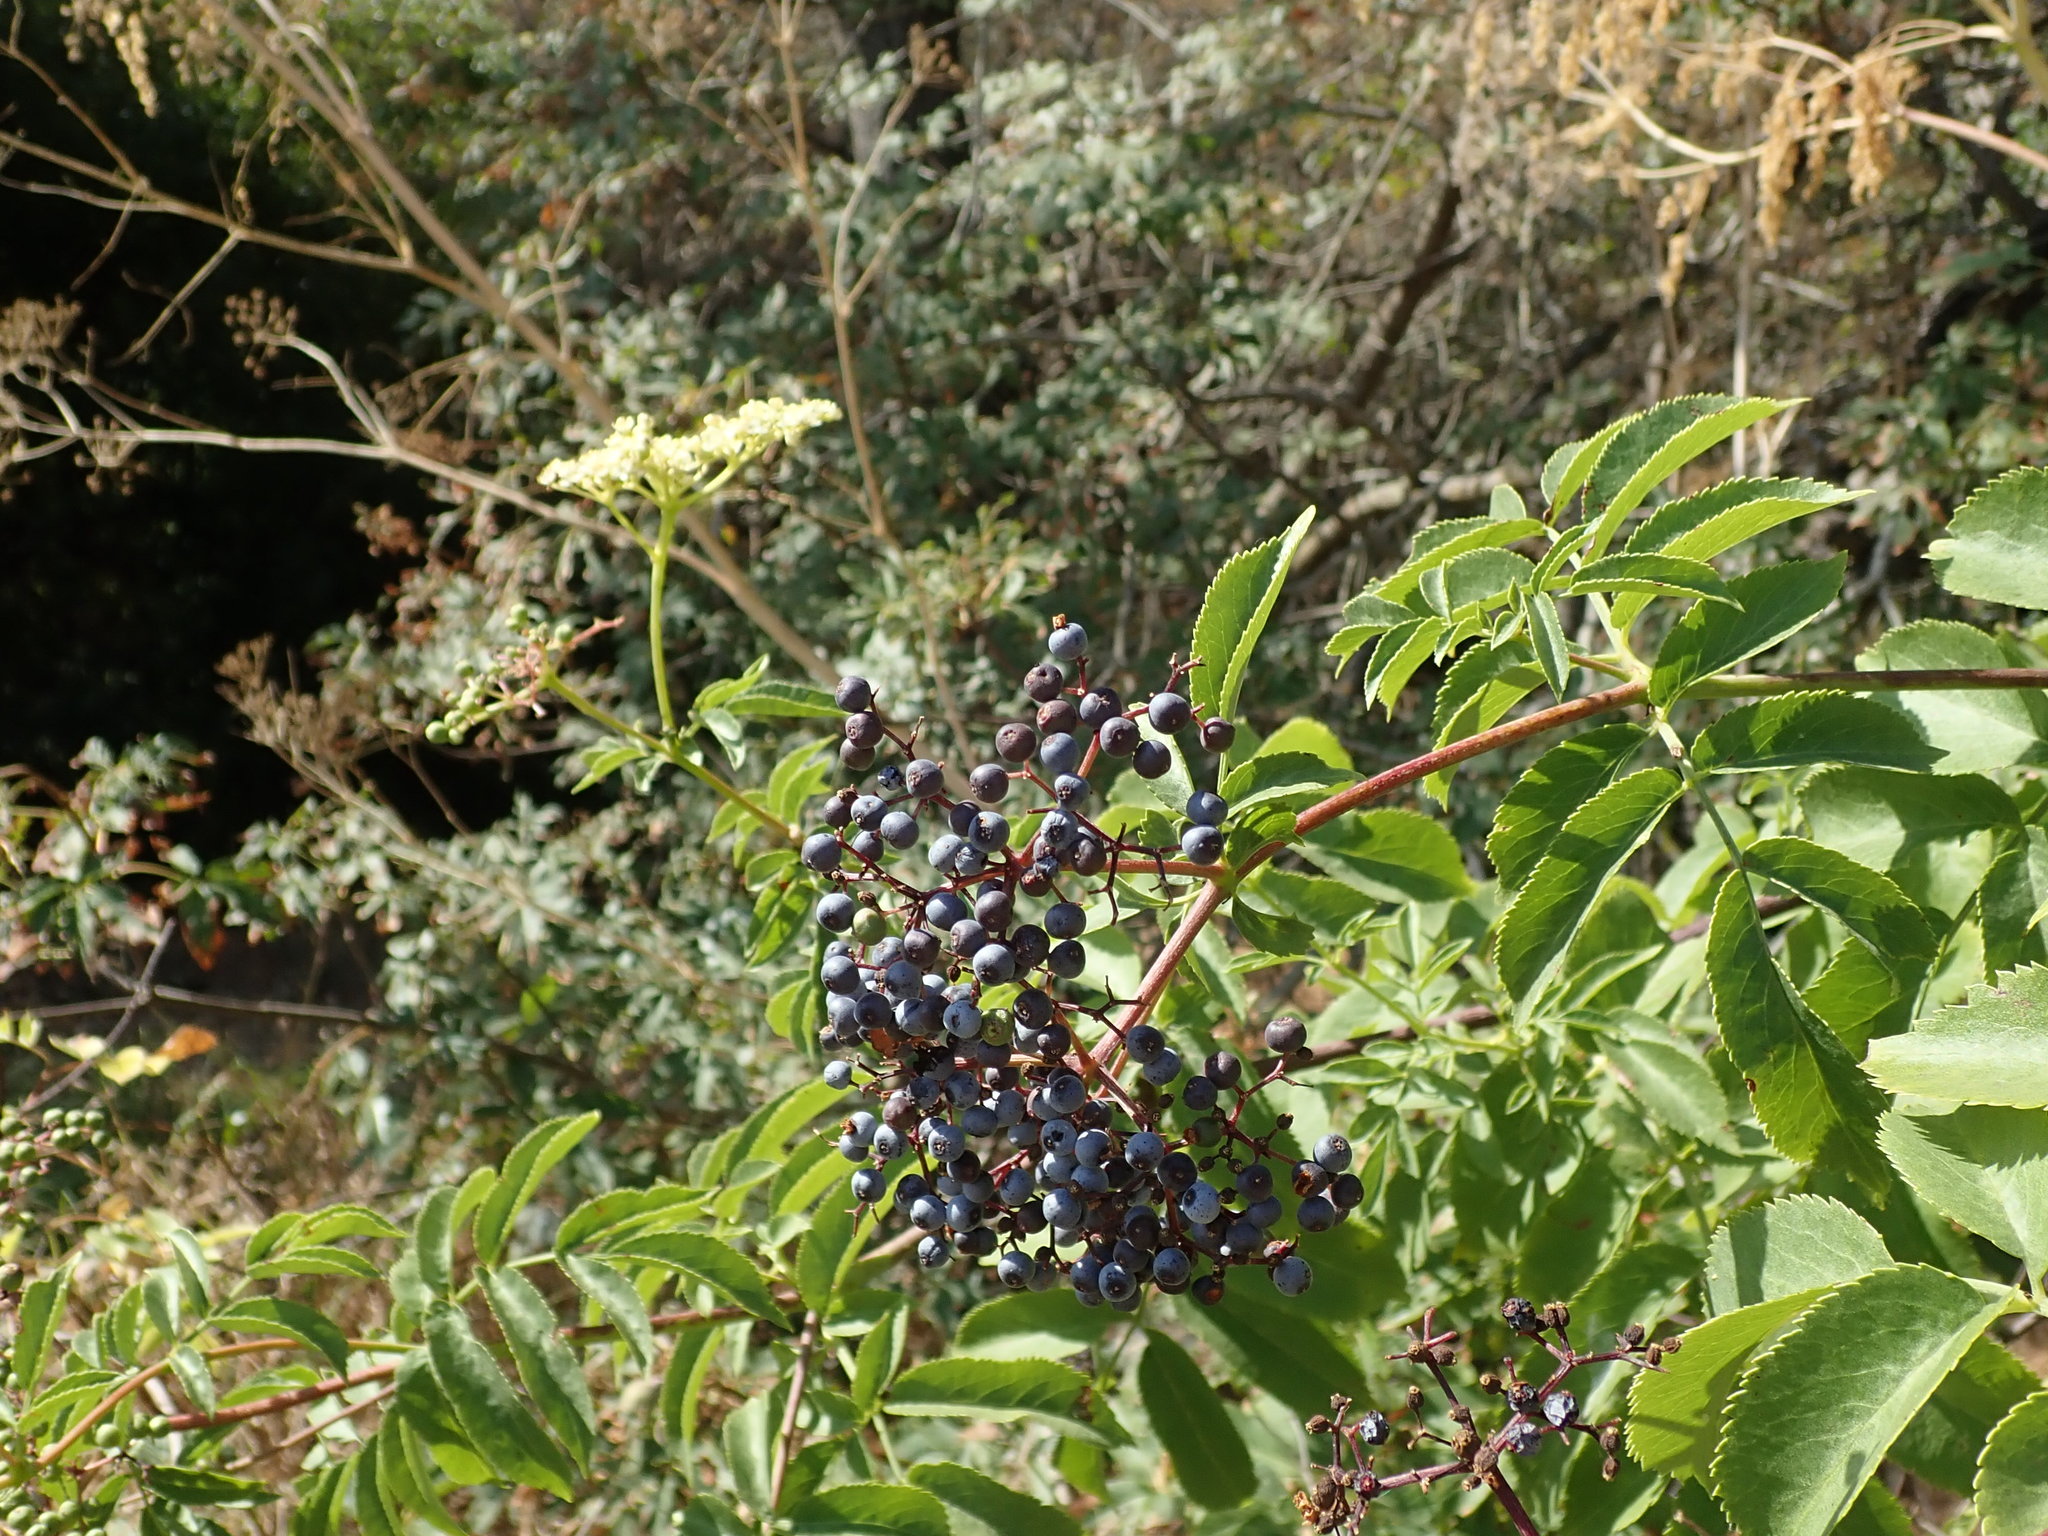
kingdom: Plantae
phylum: Tracheophyta
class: Magnoliopsida
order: Dipsacales
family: Viburnaceae
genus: Sambucus
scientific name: Sambucus cerulea
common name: Blue elder
